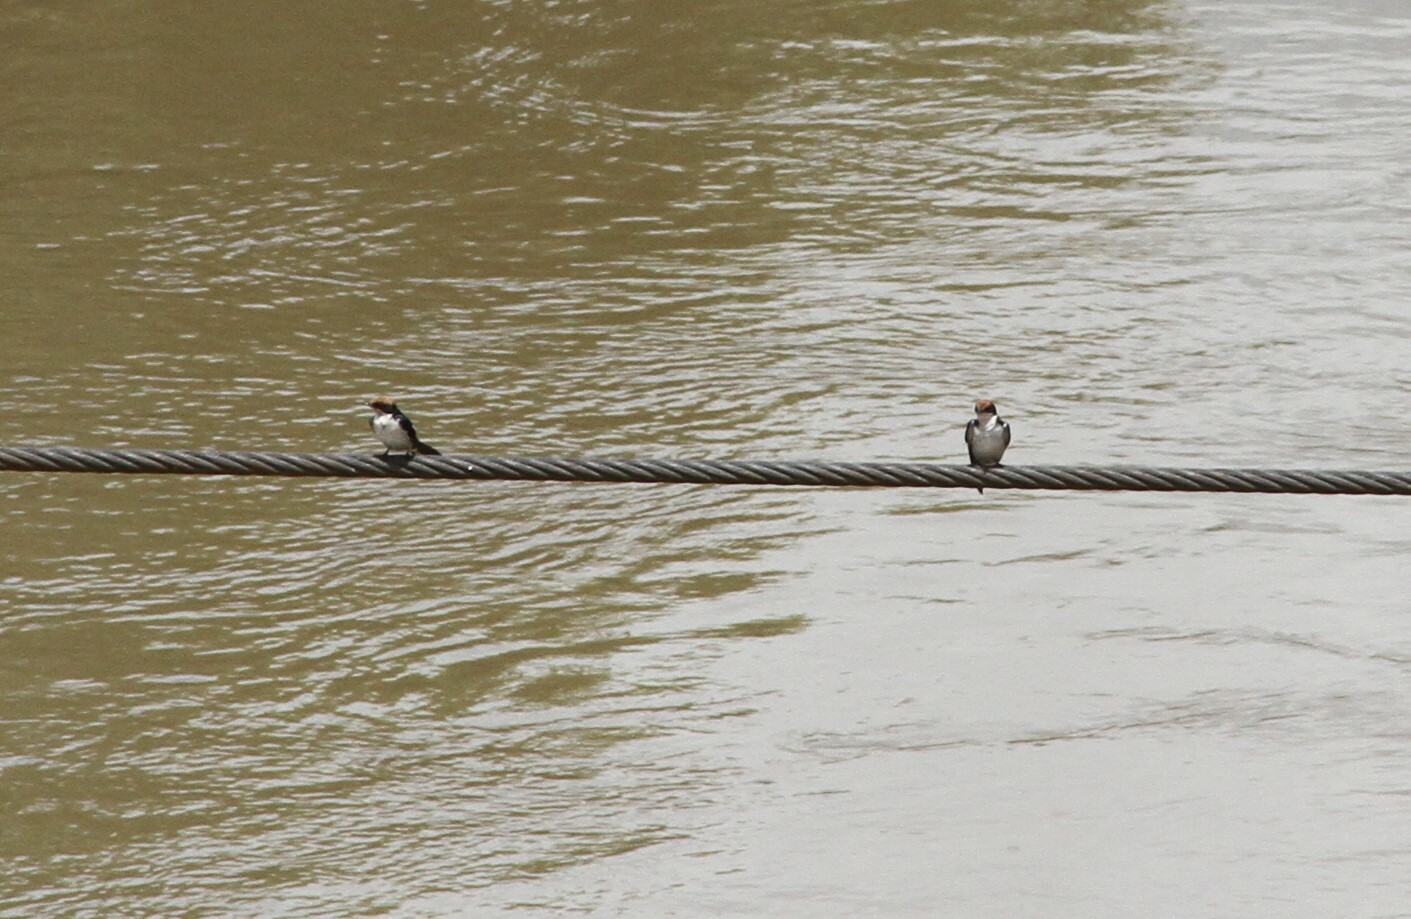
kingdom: Animalia
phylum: Chordata
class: Aves
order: Passeriformes
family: Hirundinidae
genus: Hirundo
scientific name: Hirundo smithii
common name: Wire-tailed swallow
